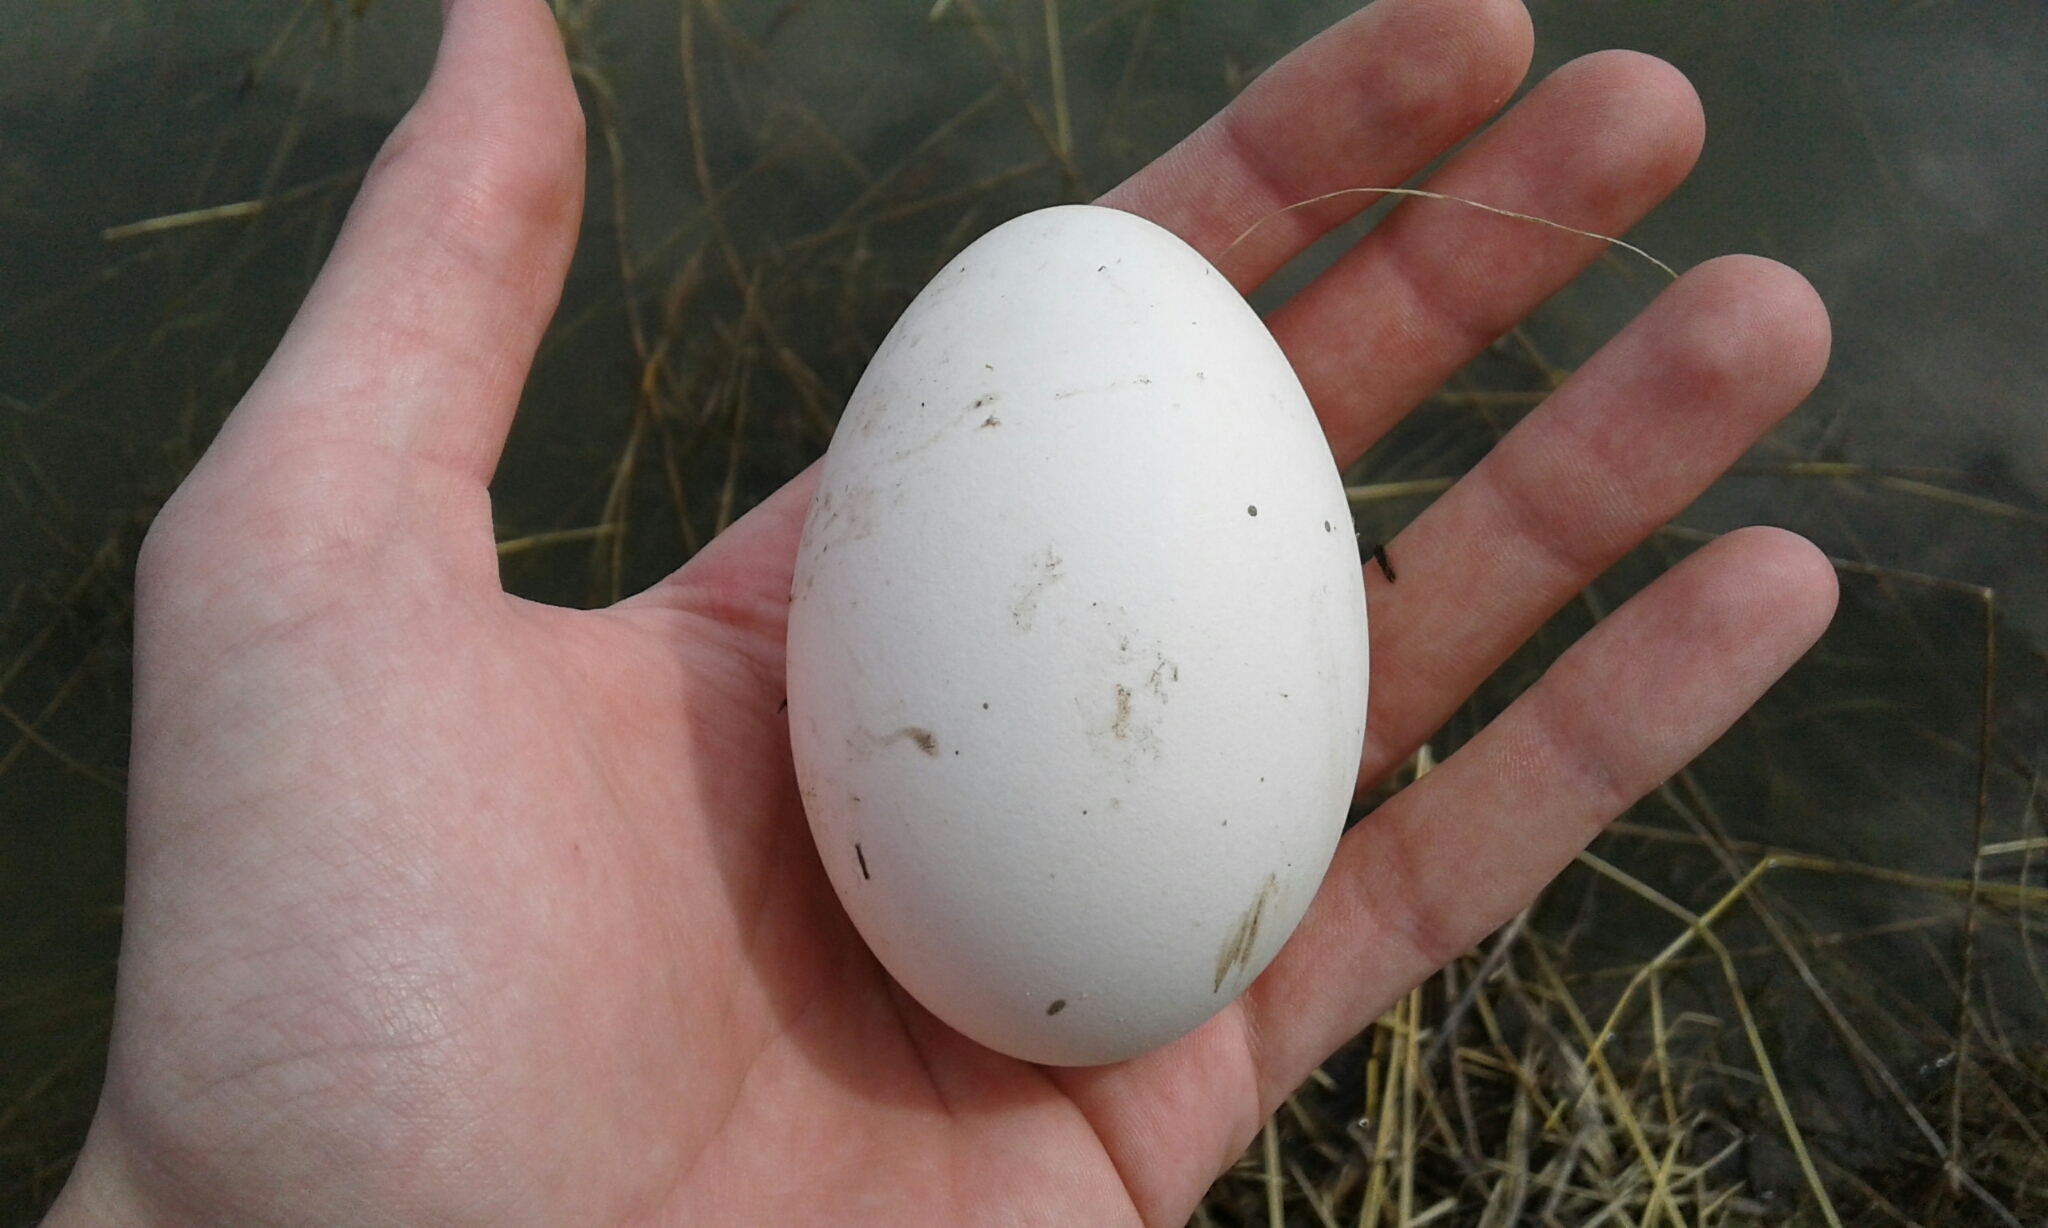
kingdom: Animalia
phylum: Chordata
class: Aves
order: Anseriformes
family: Anatidae
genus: Branta
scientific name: Branta canadensis
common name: Canada goose
